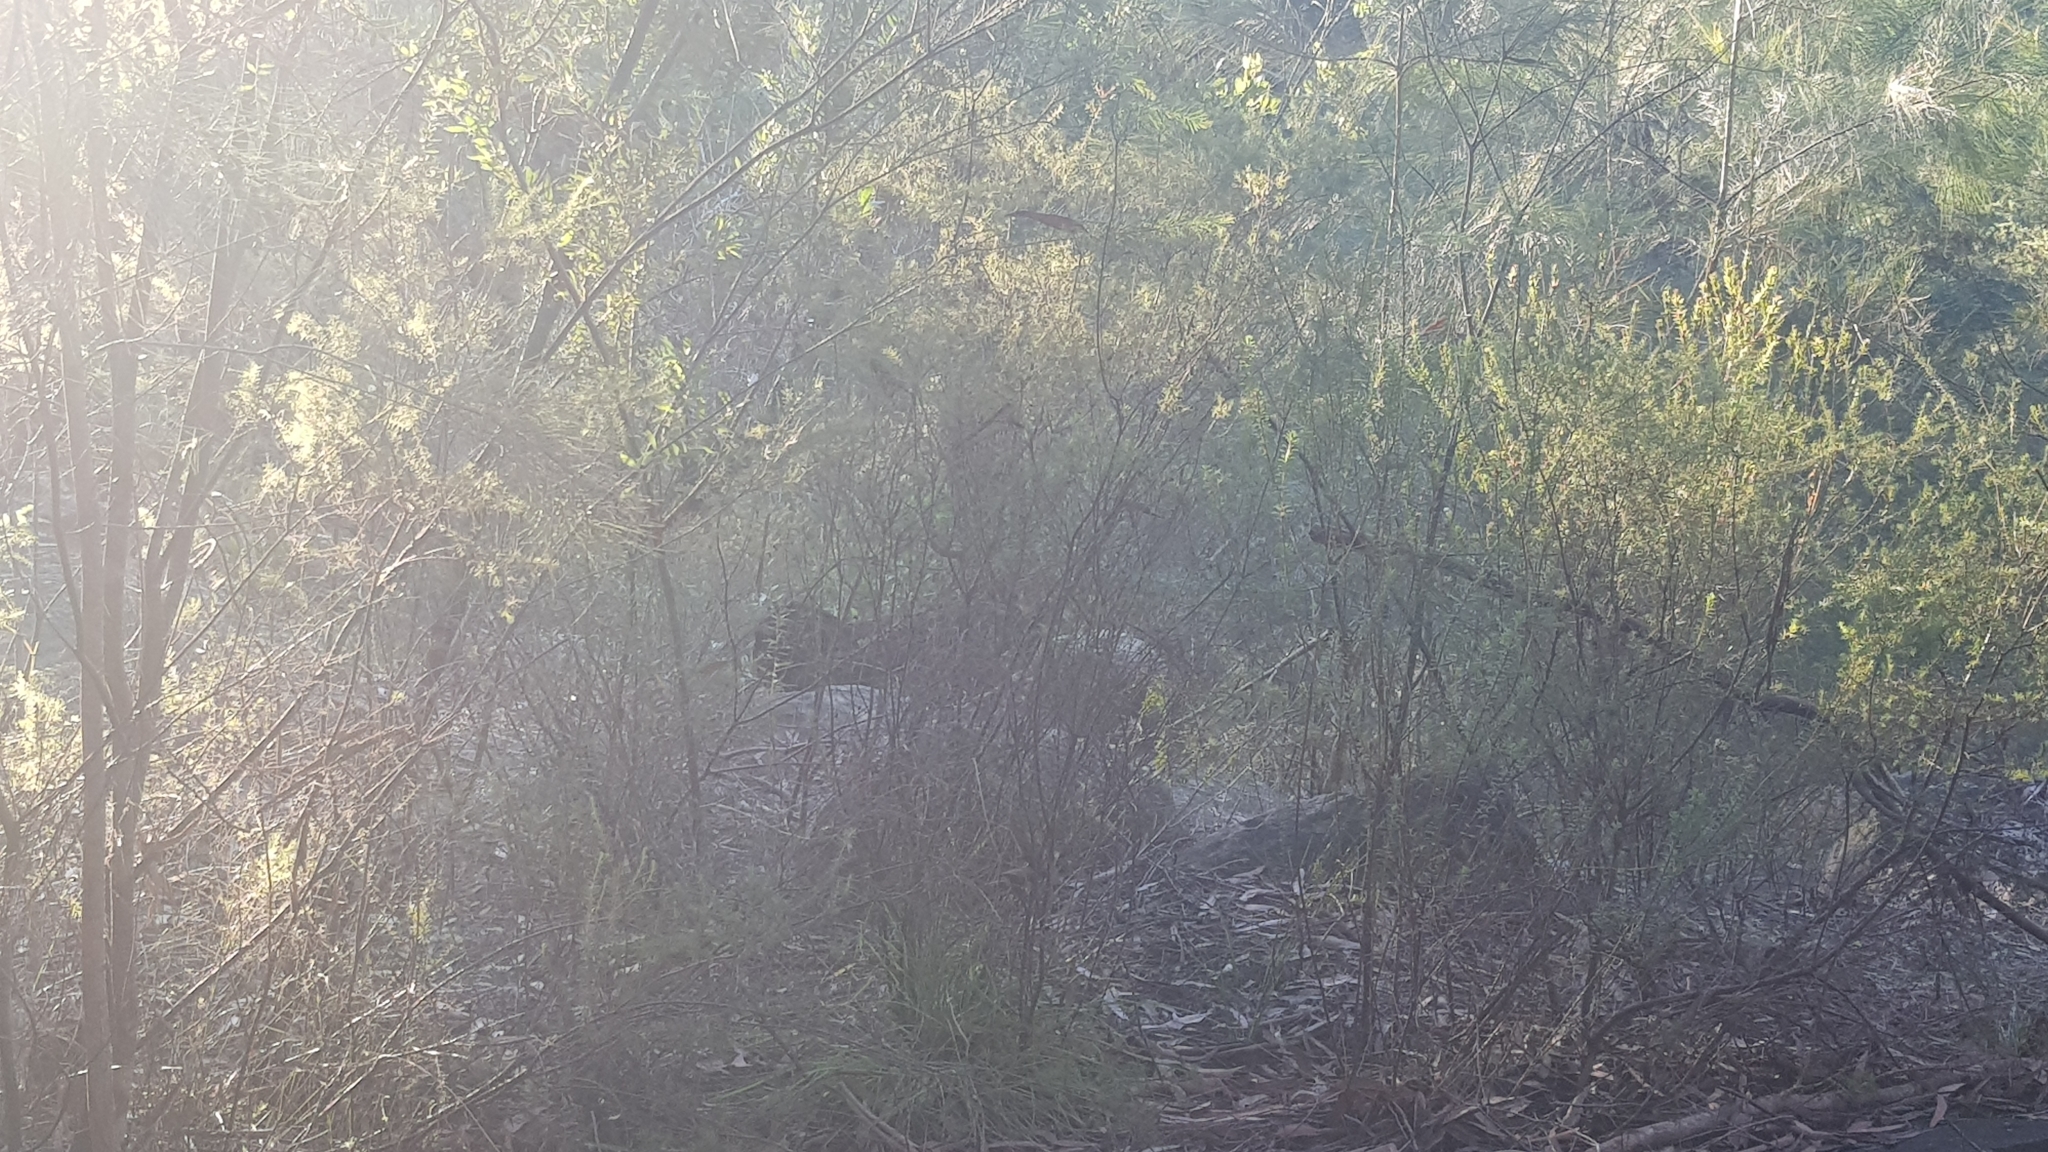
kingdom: Animalia
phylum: Chordata
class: Aves
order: Galliformes
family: Megapodiidae
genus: Alectura
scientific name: Alectura lathami
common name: Australian brushturkey
